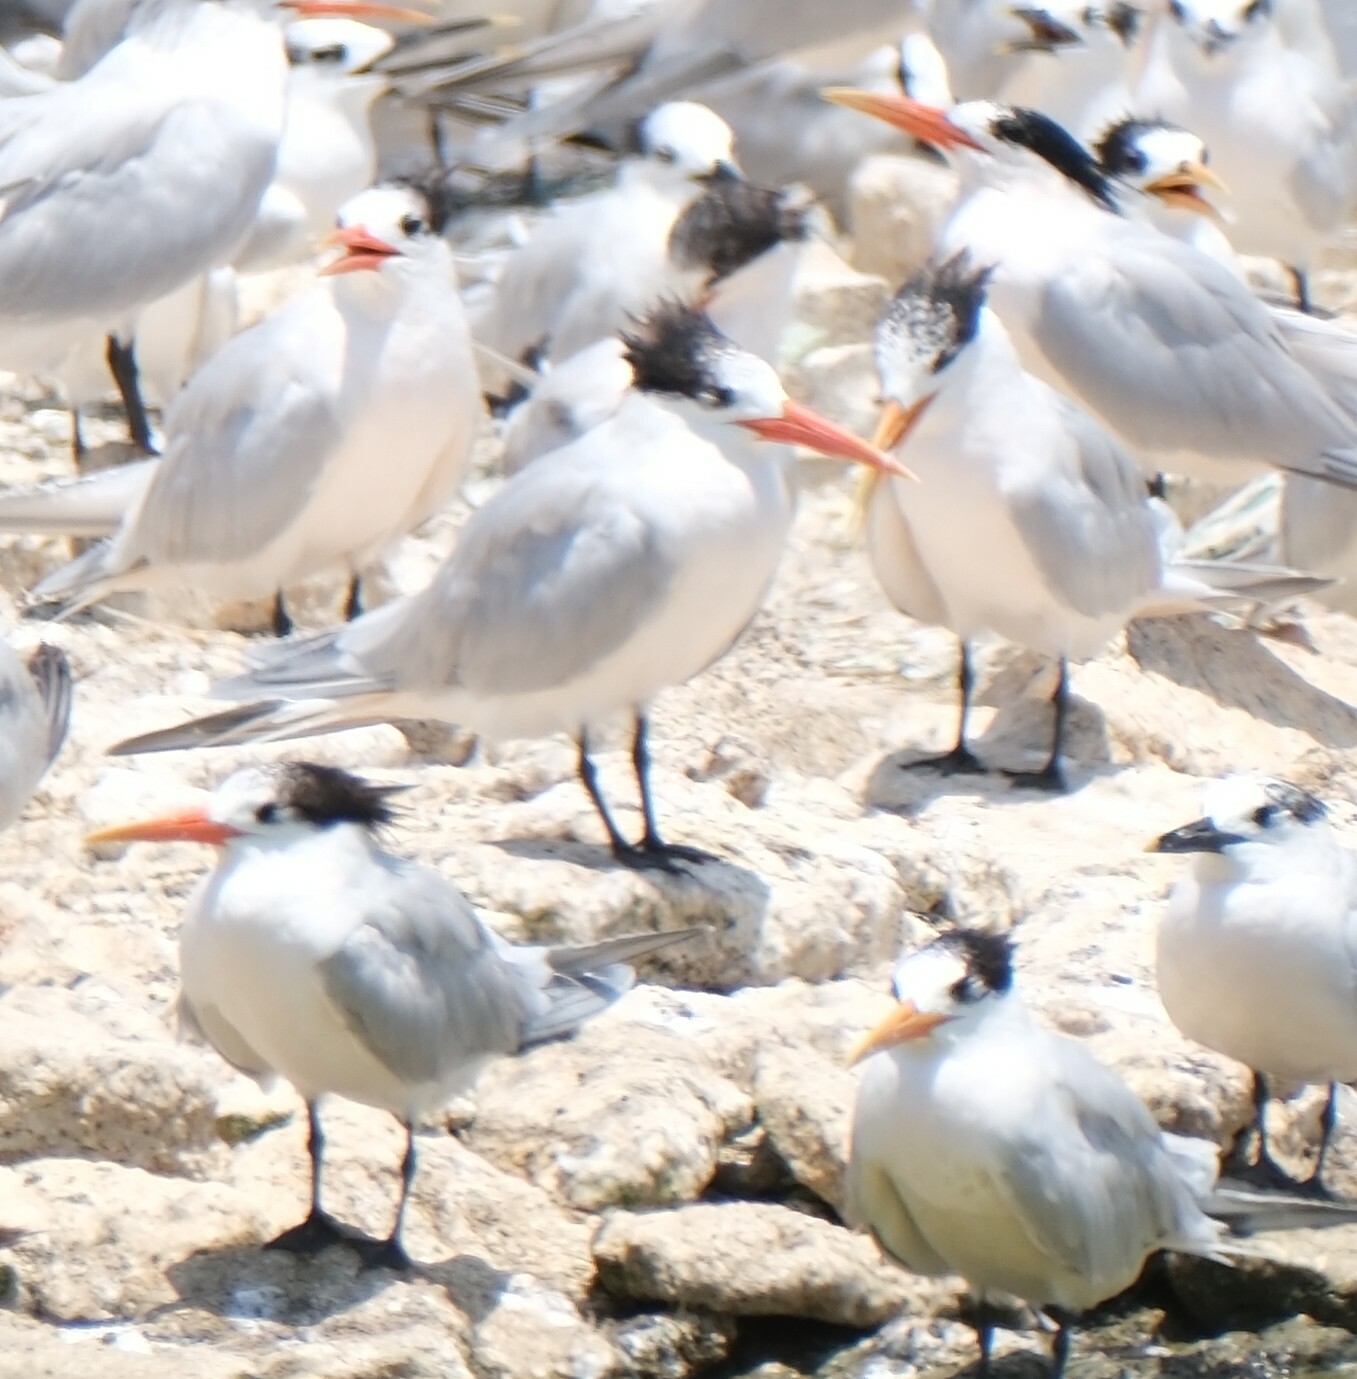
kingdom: Animalia
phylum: Chordata
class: Aves
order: Charadriiformes
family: Laridae
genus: Thalasseus
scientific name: Thalasseus elegans
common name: Elegant tern
